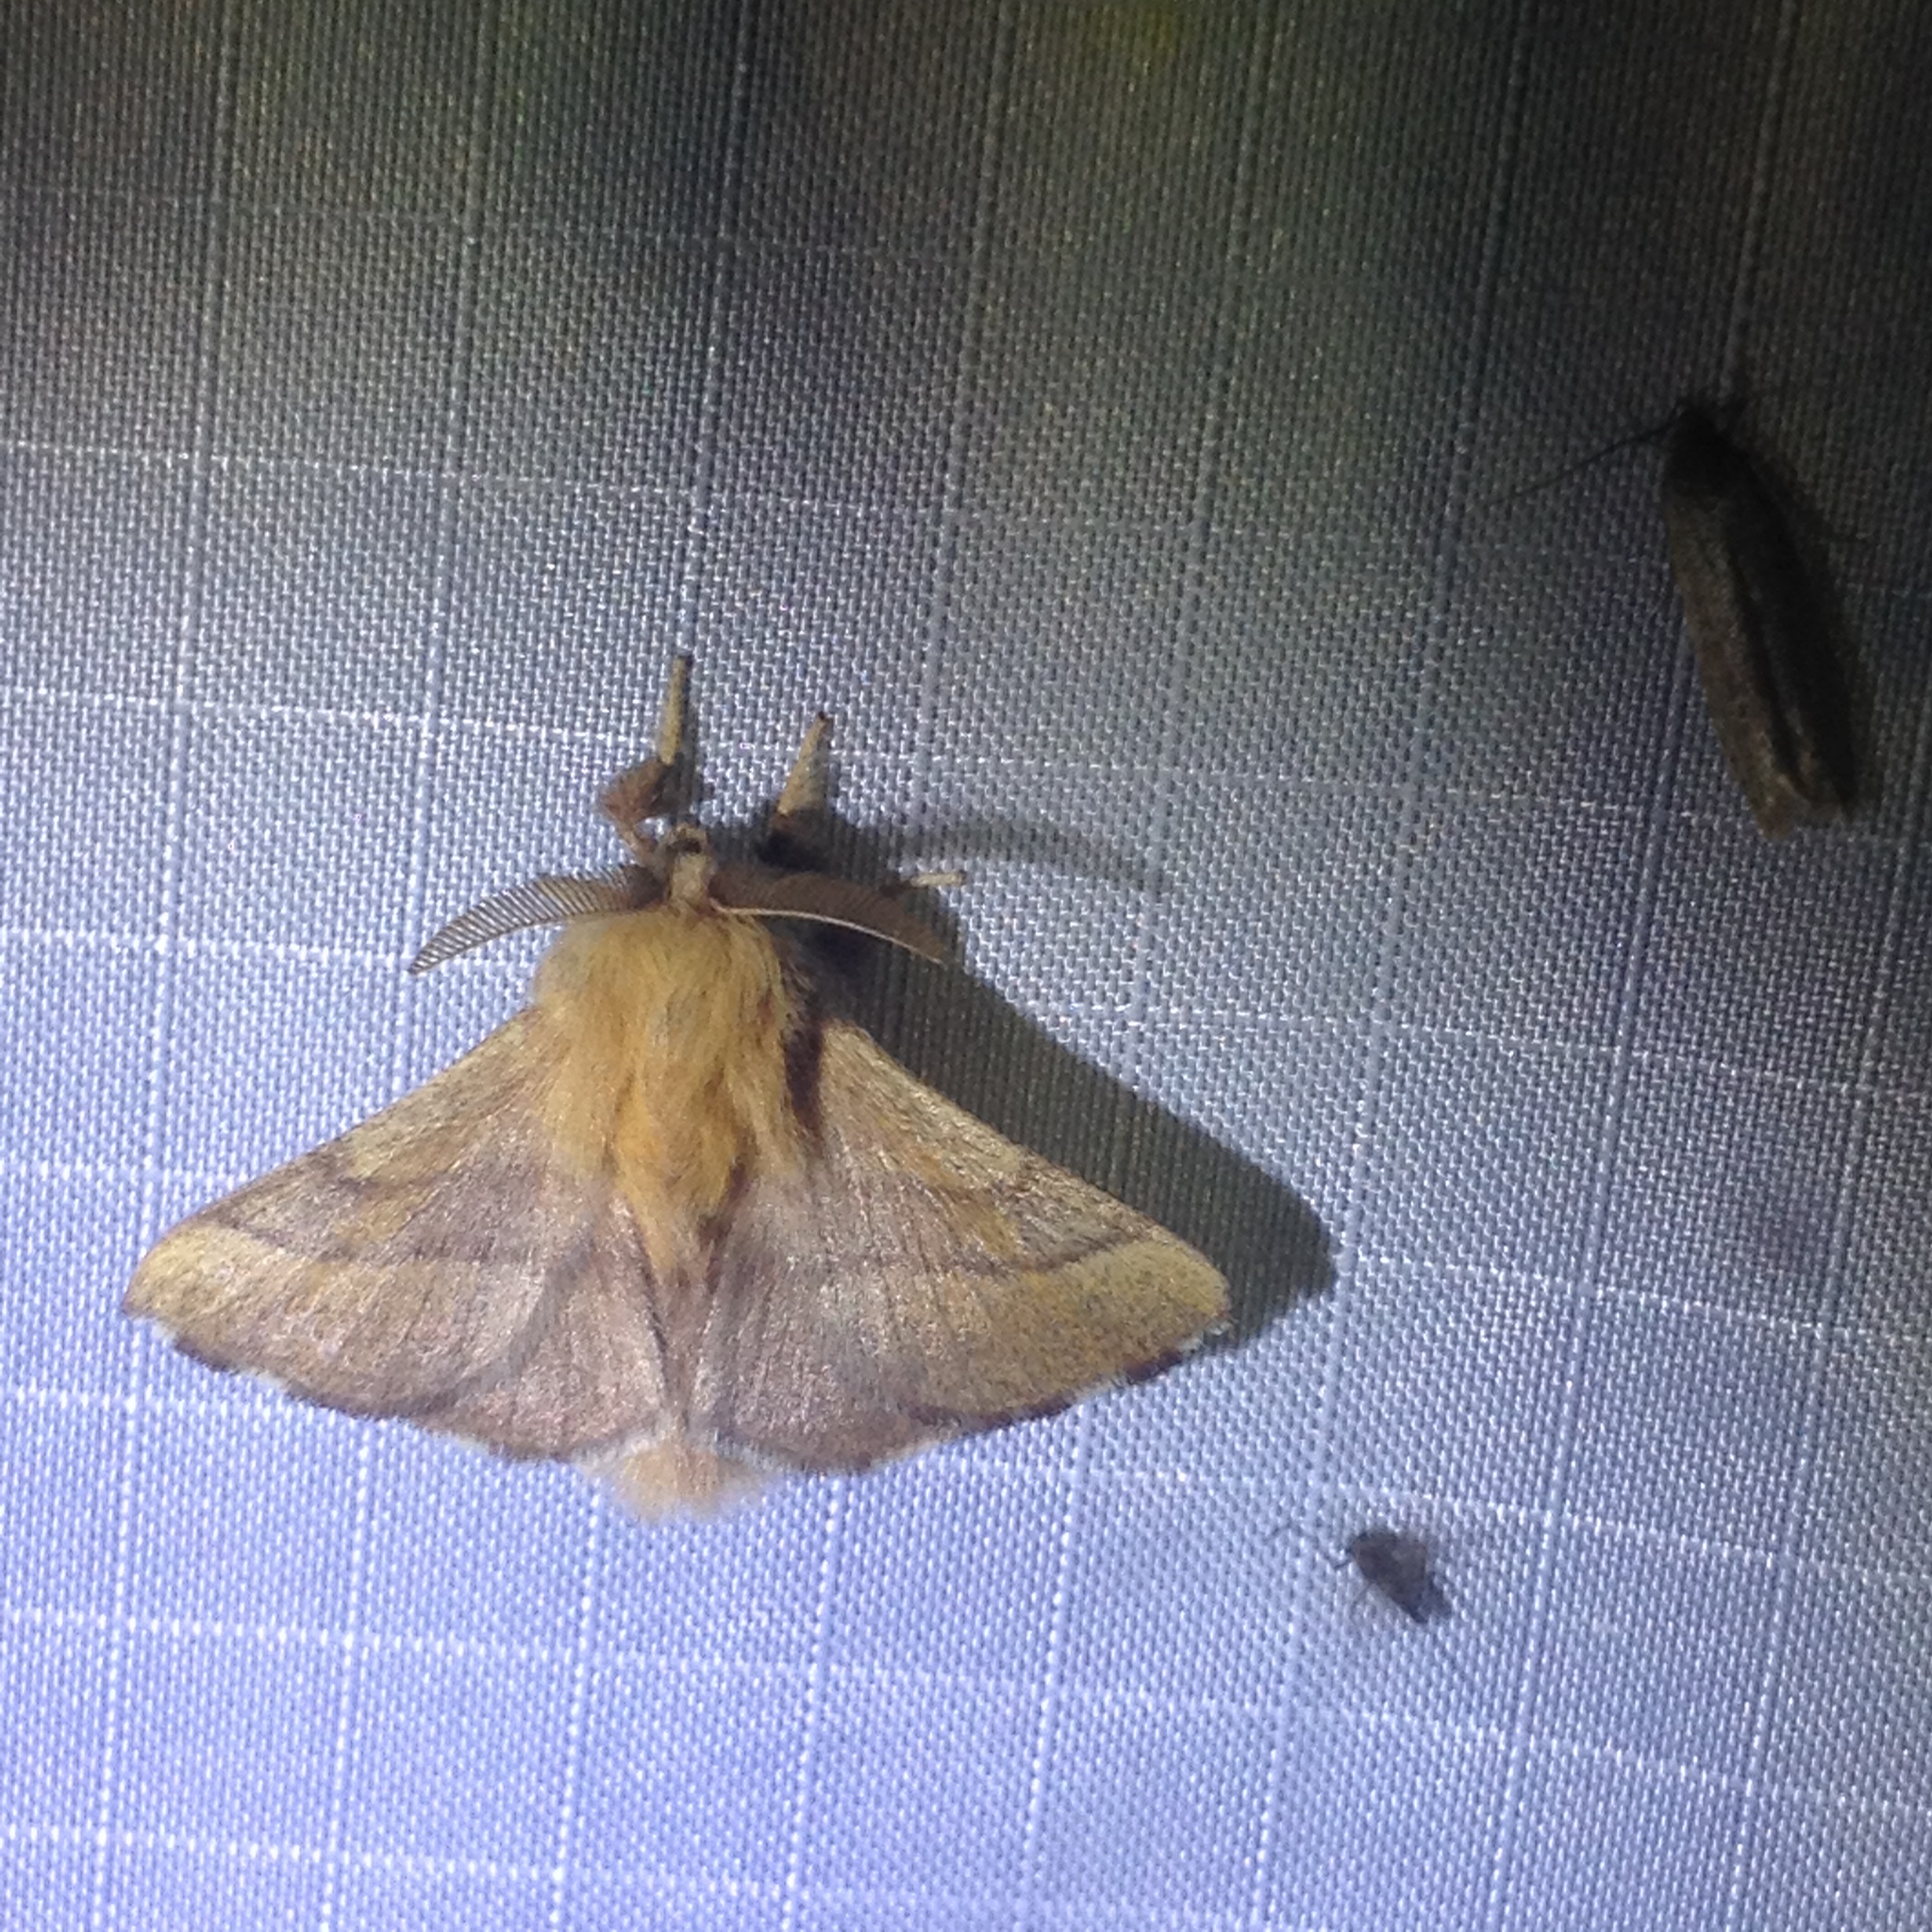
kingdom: Animalia
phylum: Arthropoda
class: Insecta
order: Lepidoptera
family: Lasiocampidae
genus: Malacosoma
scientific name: Malacosoma disstria
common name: Forest tent caterpillar
